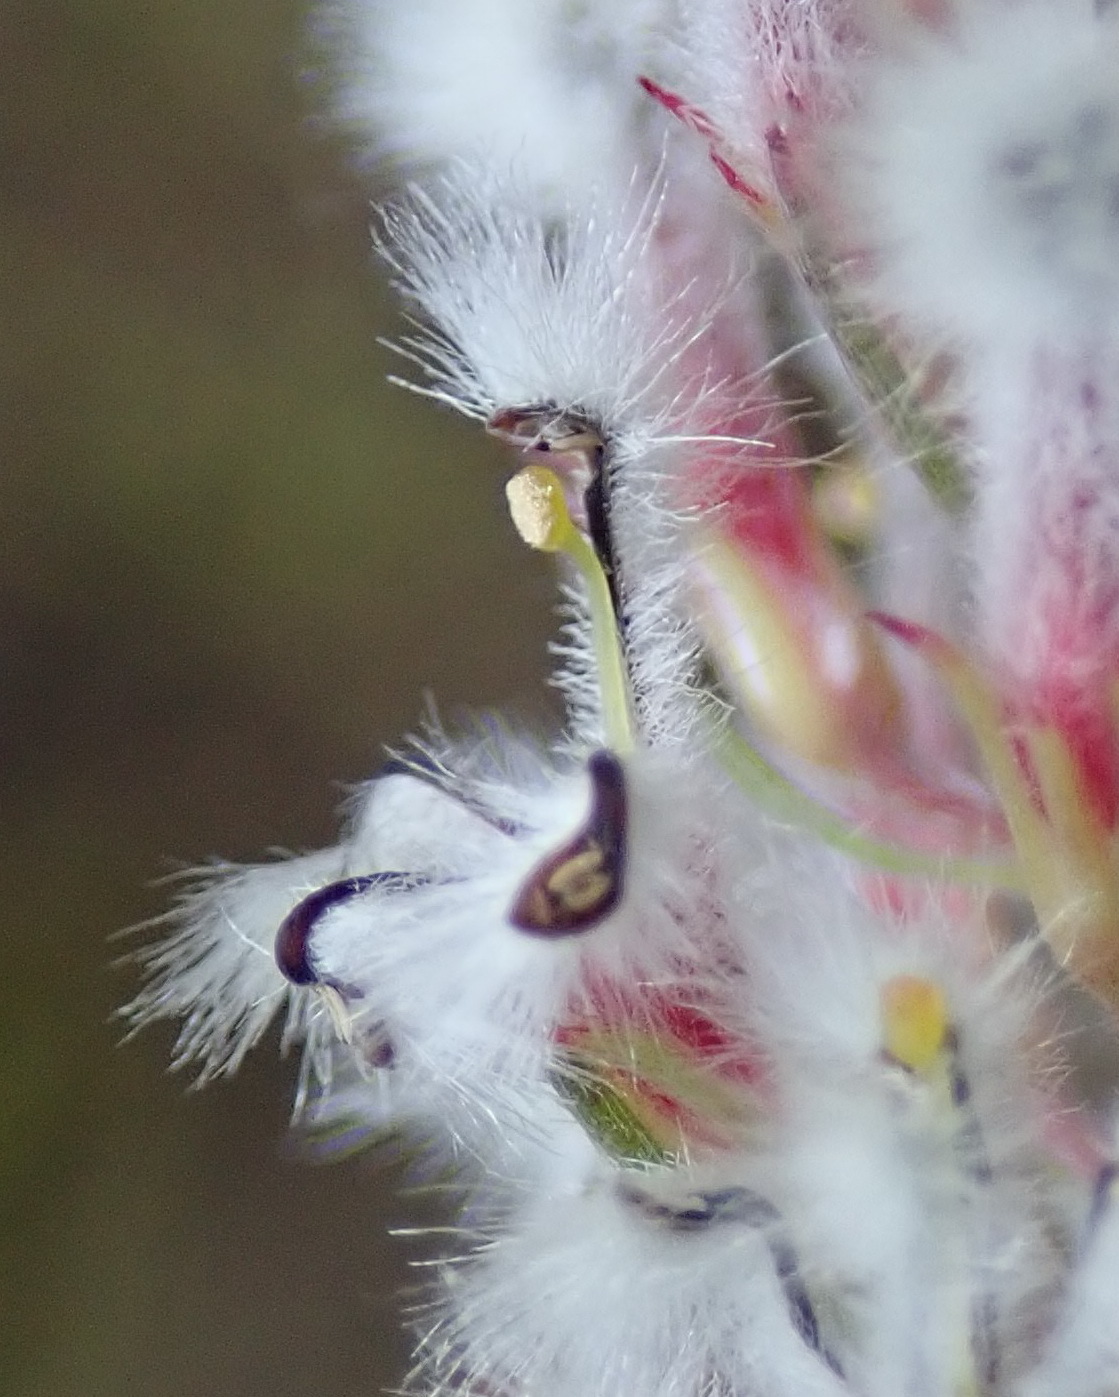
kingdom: Plantae
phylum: Tracheophyta
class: Magnoliopsida
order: Proteales
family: Proteaceae
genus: Spatalla
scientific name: Spatalla parilis
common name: Spike spoon
